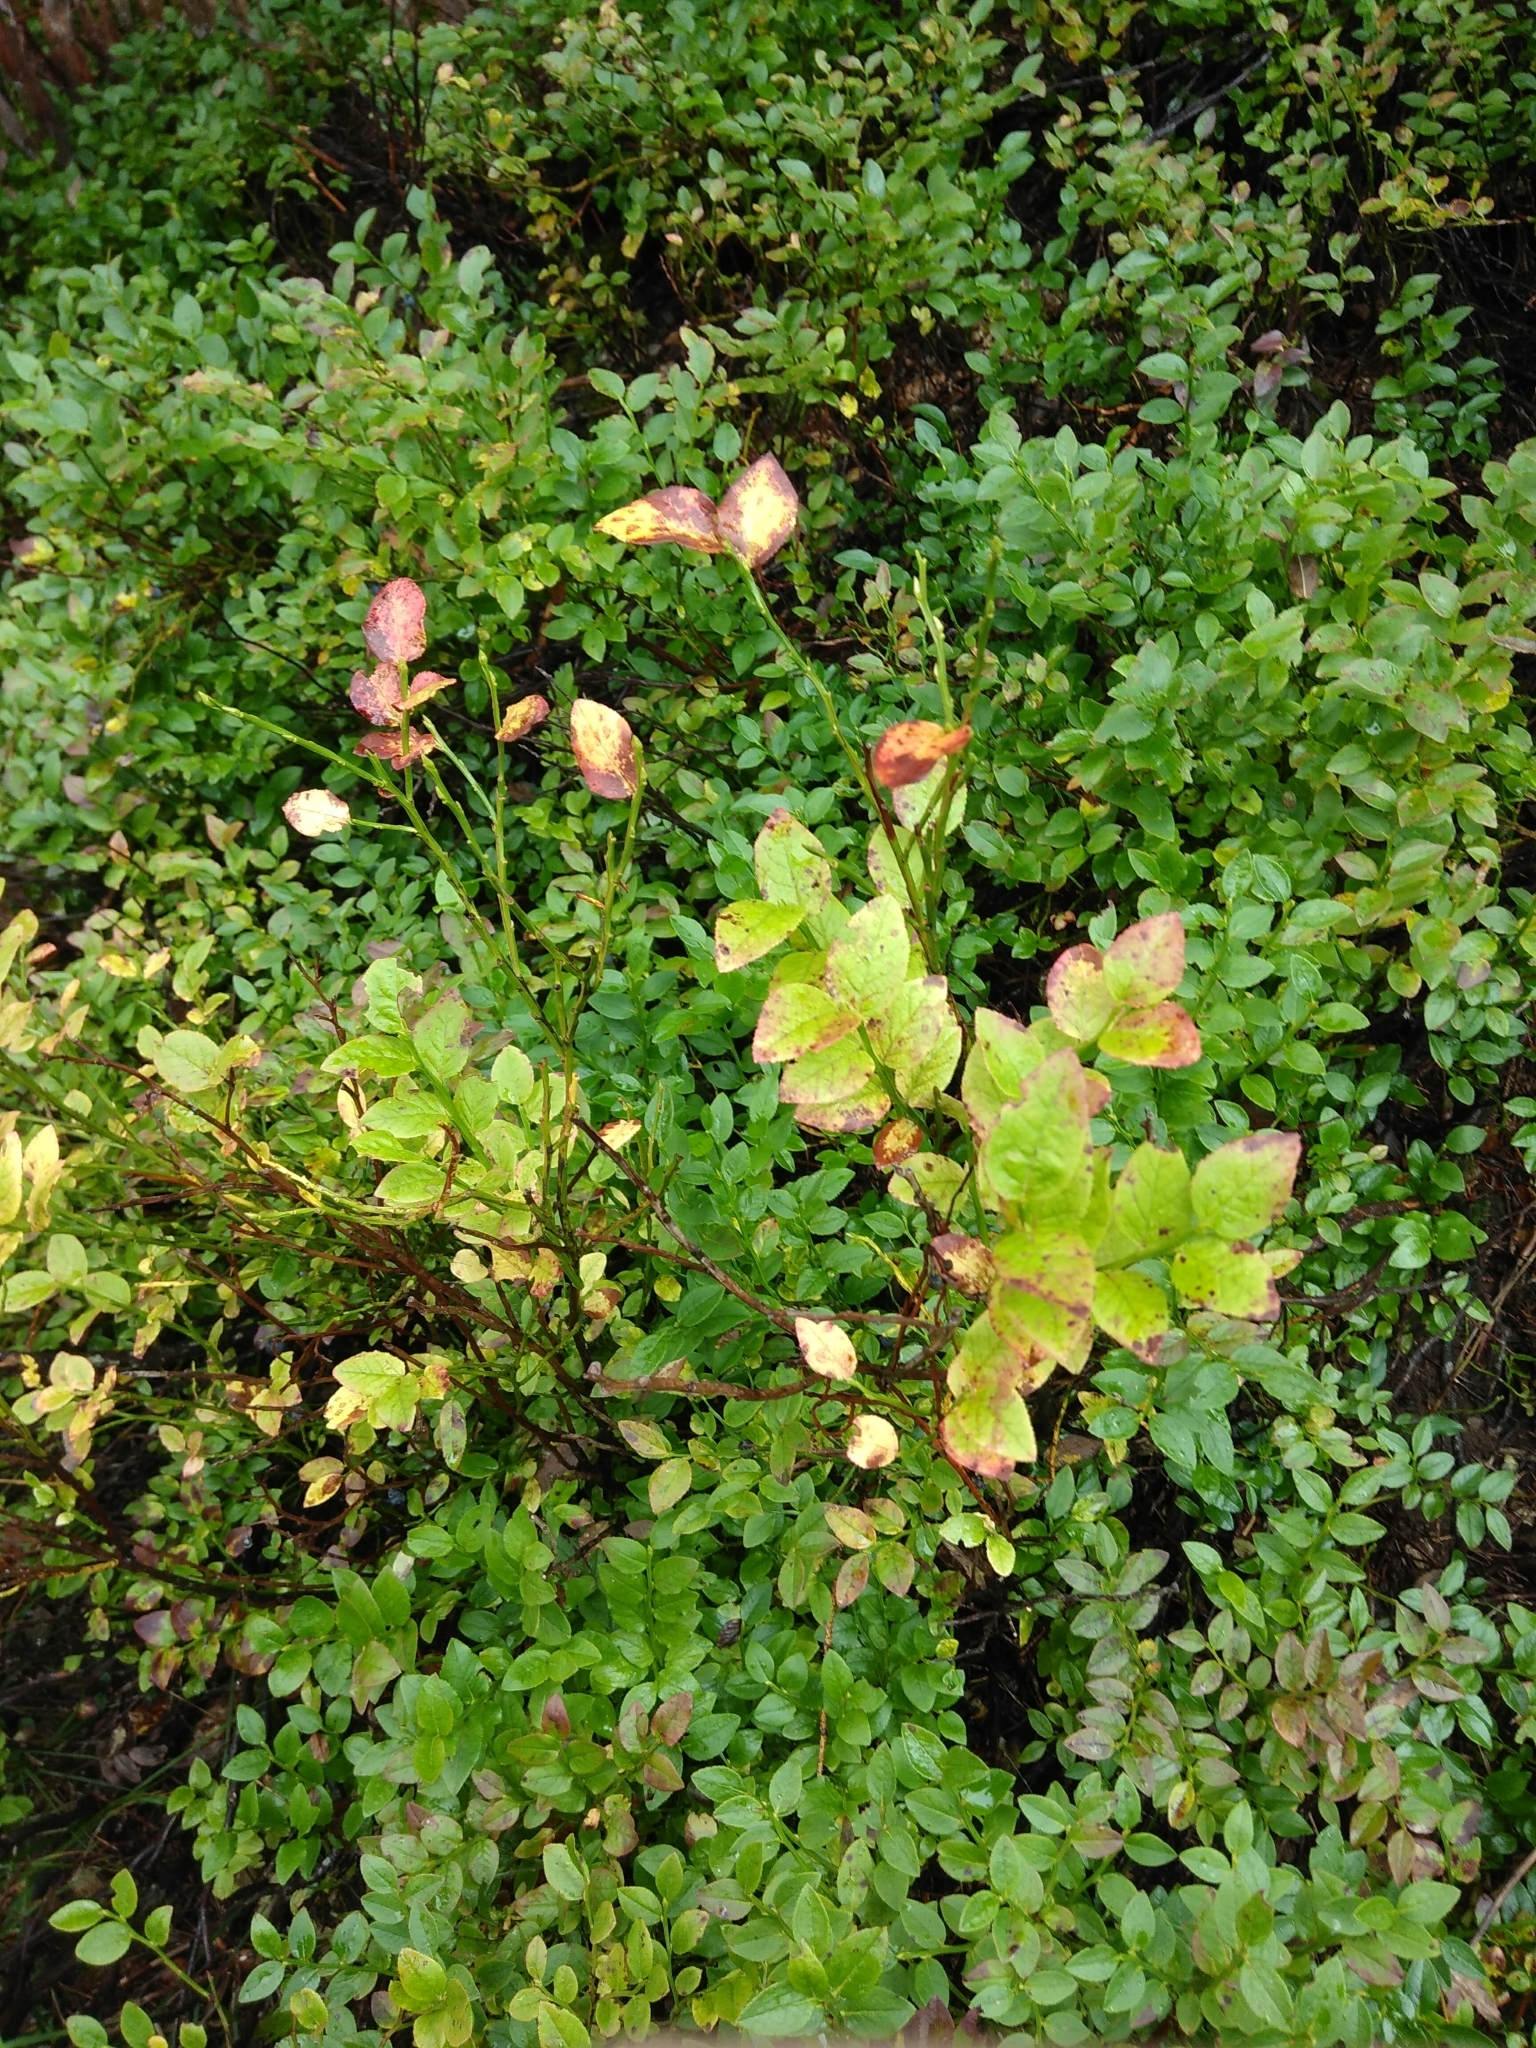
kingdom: Plantae
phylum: Tracheophyta
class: Magnoliopsida
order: Ericales
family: Ericaceae
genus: Vaccinium
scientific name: Vaccinium myrtillus
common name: Bilberry
